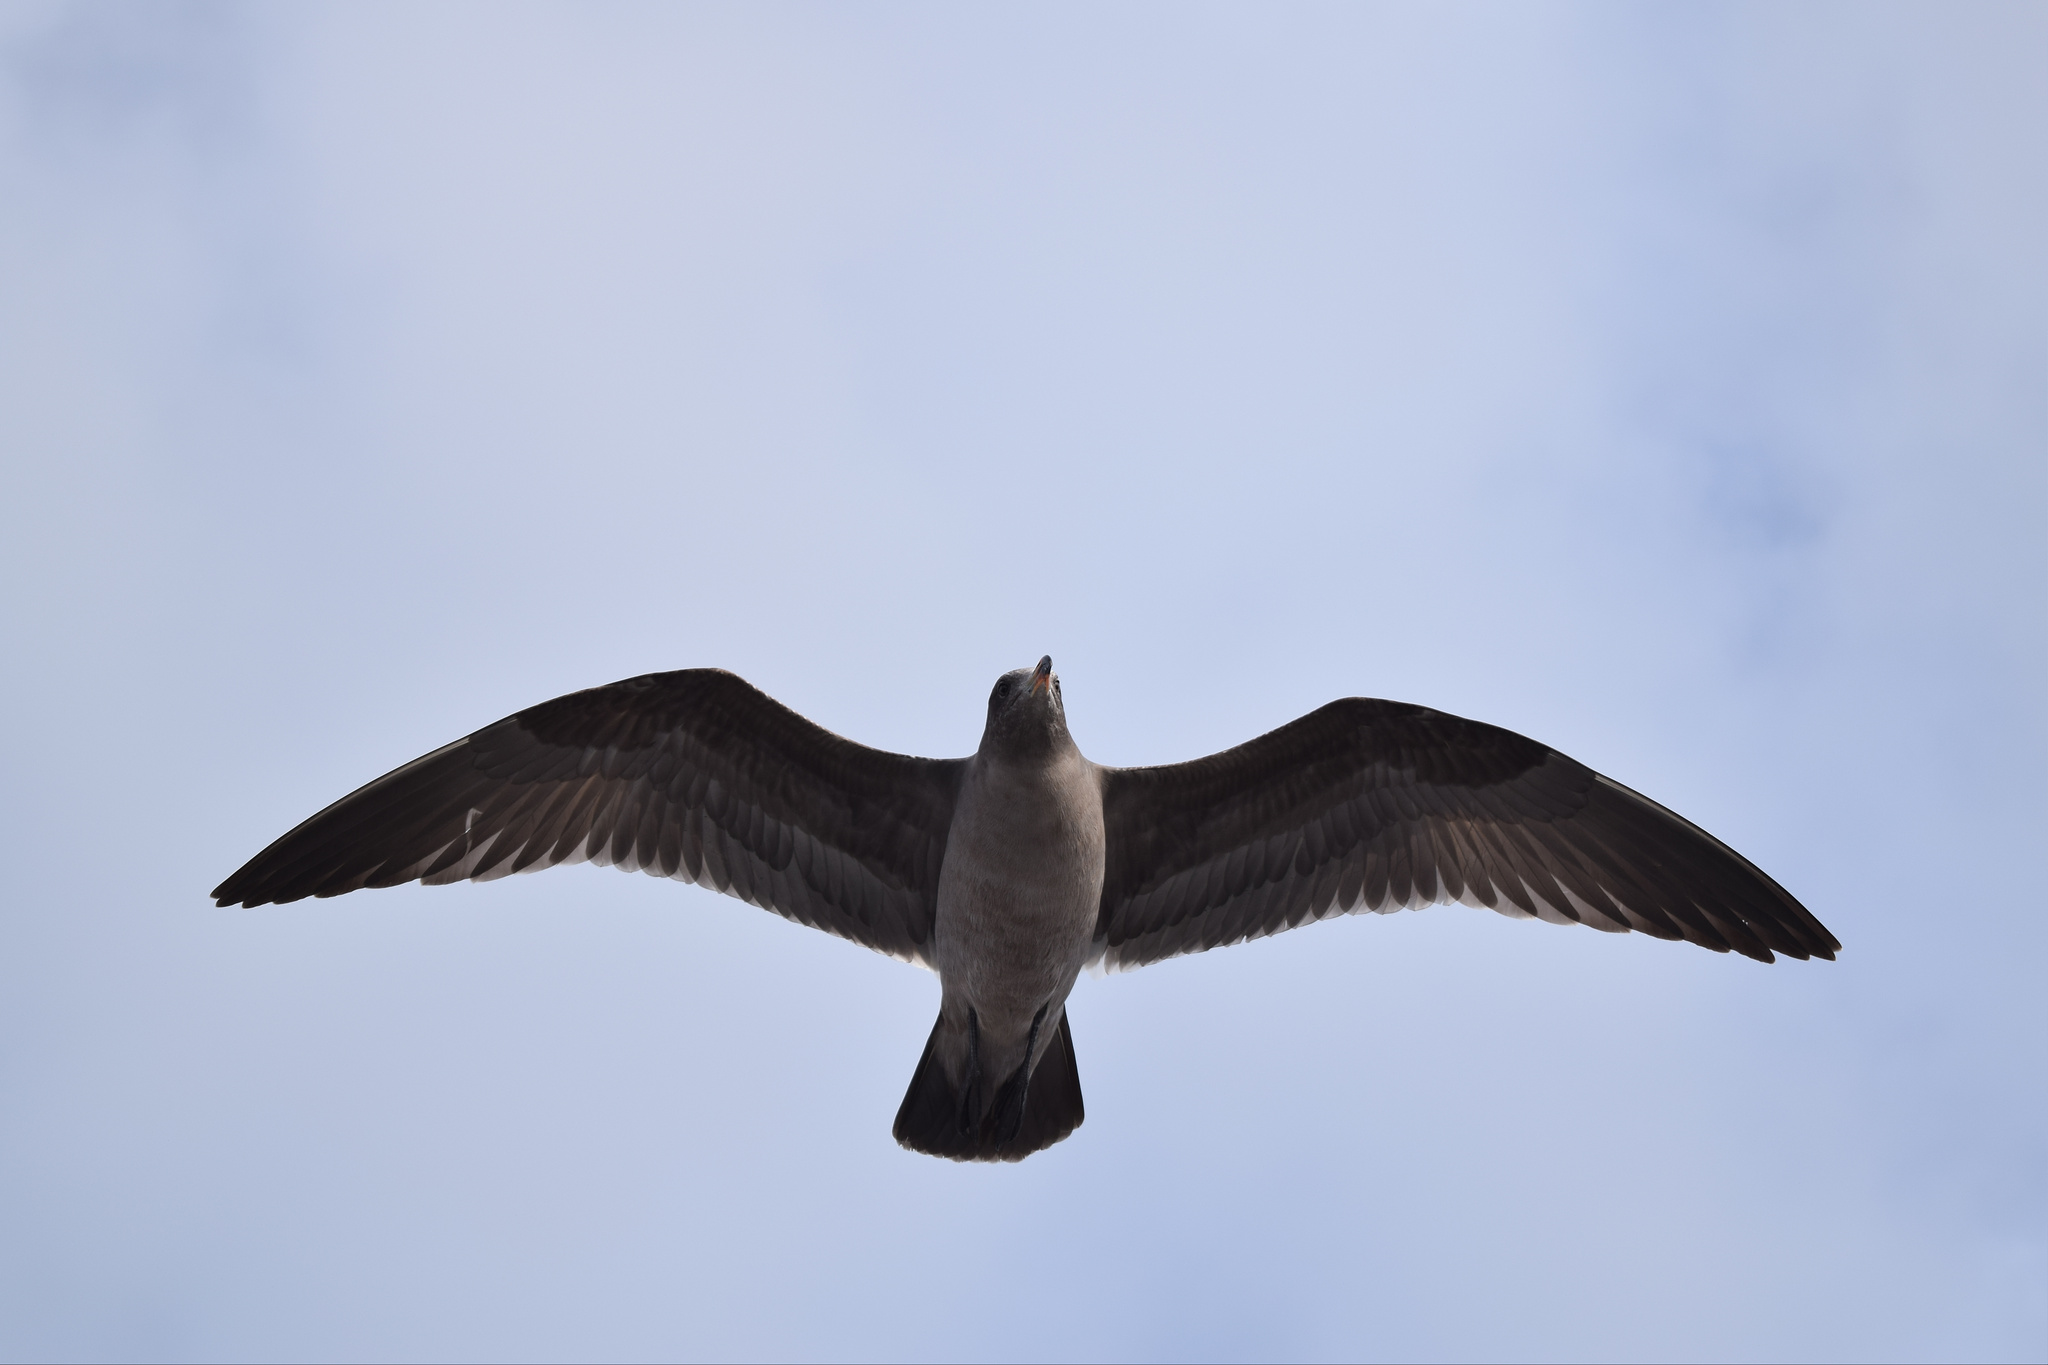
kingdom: Animalia
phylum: Chordata
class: Aves
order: Charadriiformes
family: Laridae
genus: Larus
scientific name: Larus heermanni
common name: Heermann's gull
